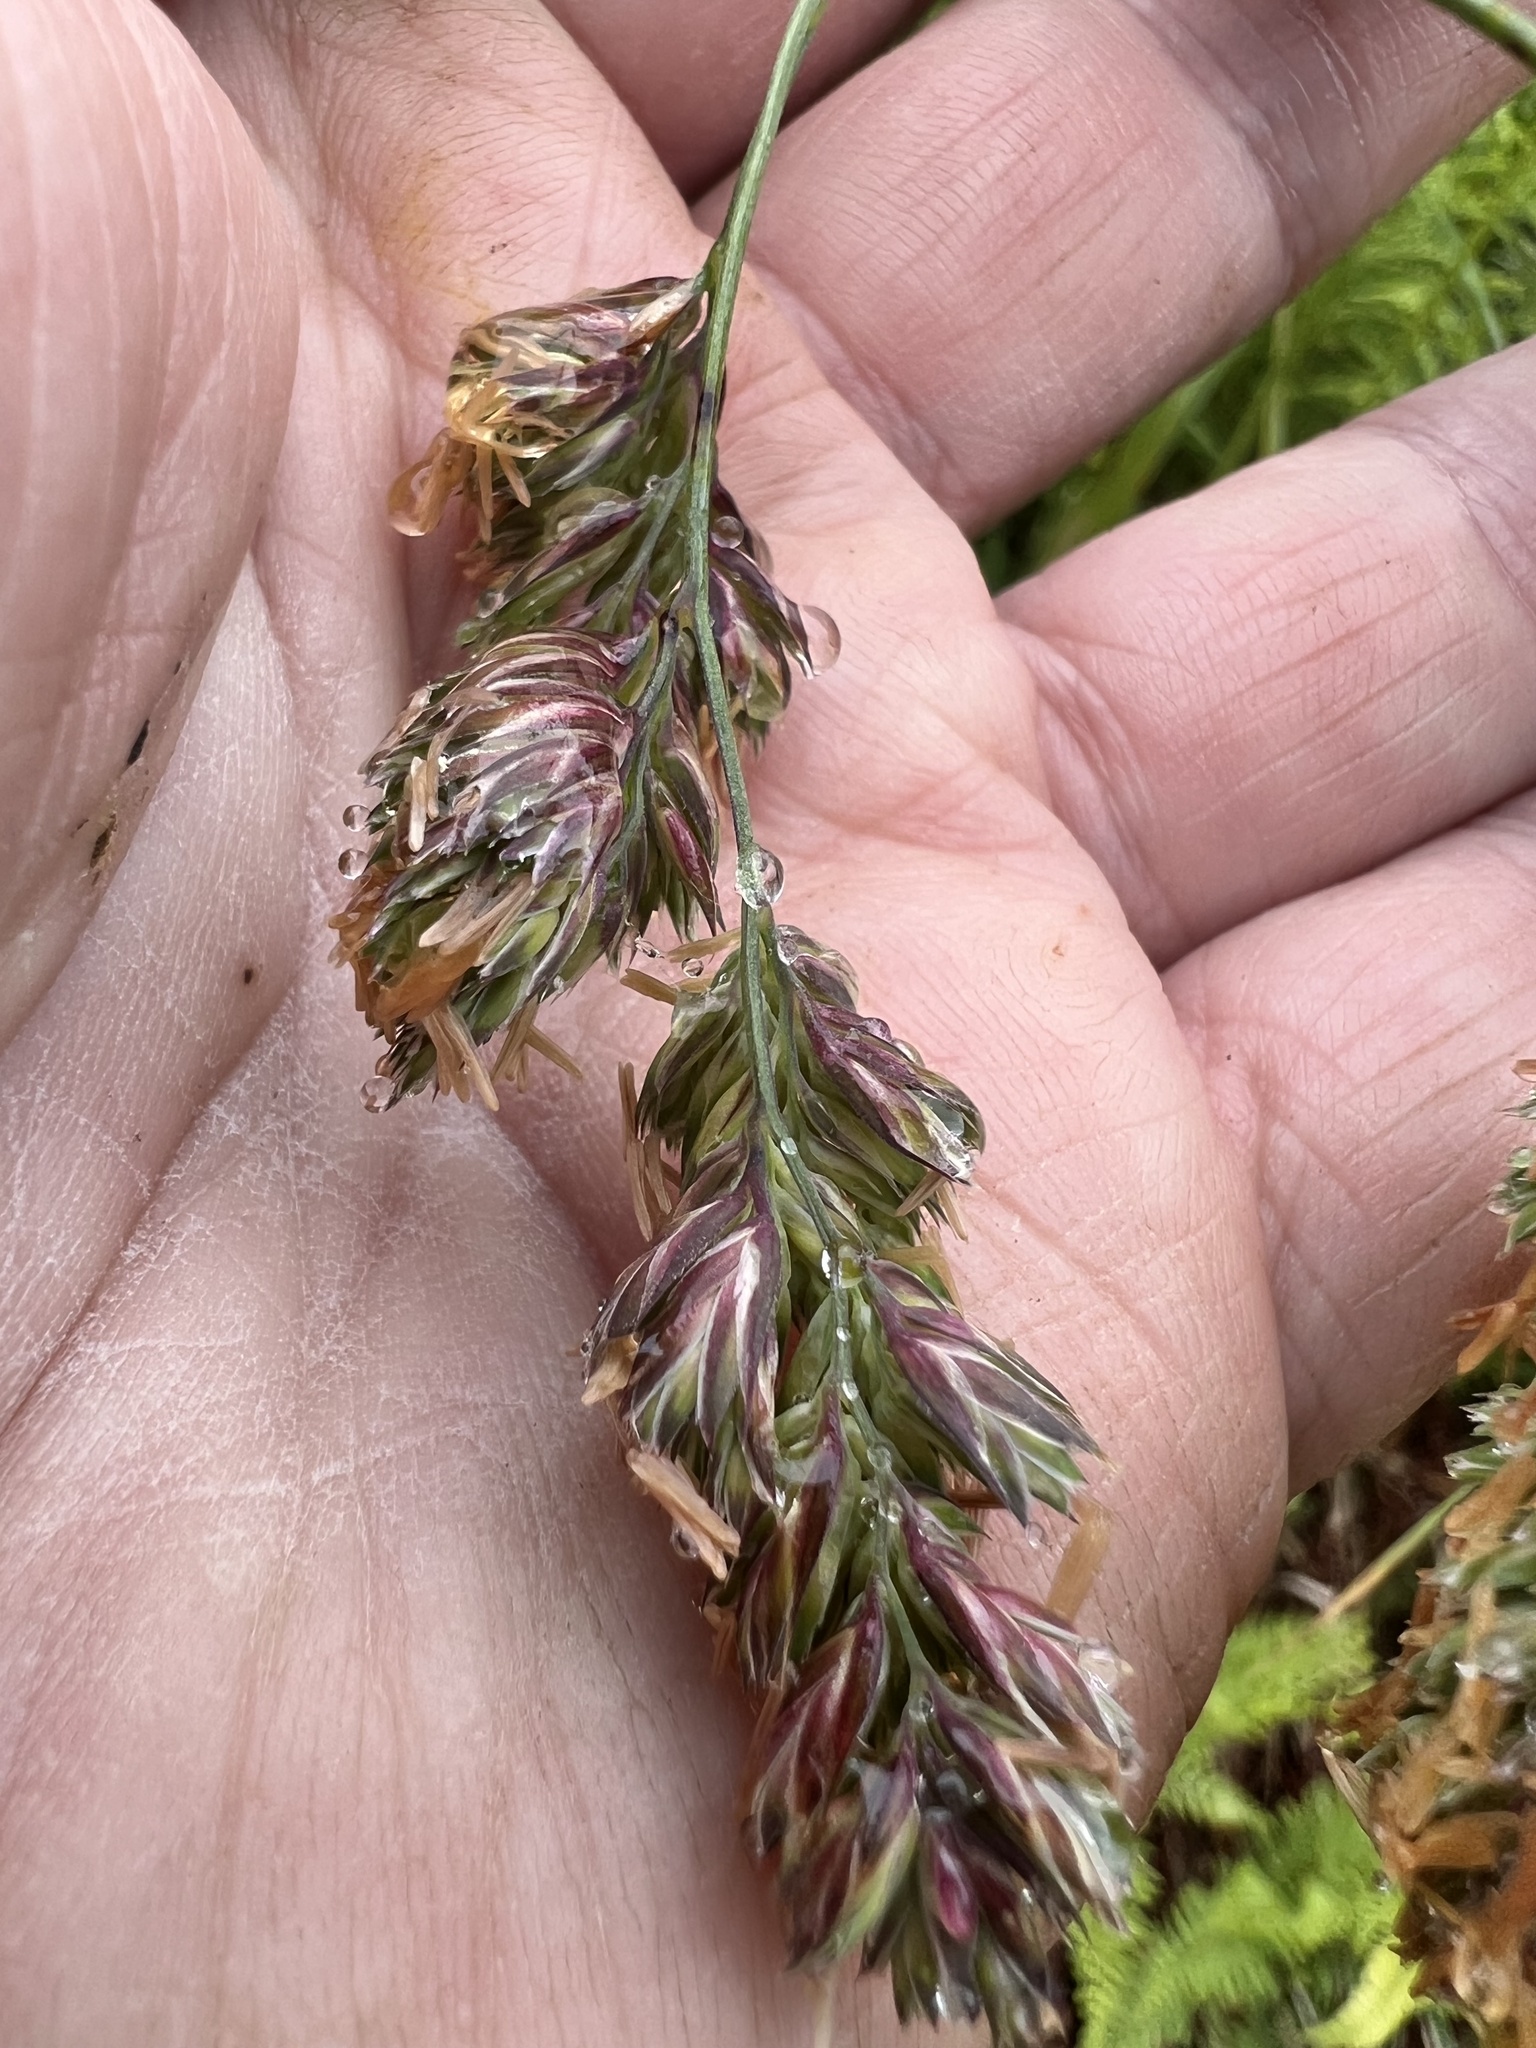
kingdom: Plantae
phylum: Tracheophyta
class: Liliopsida
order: Poales
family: Poaceae
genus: Dactylis
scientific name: Dactylis glomerata
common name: Orchardgrass
